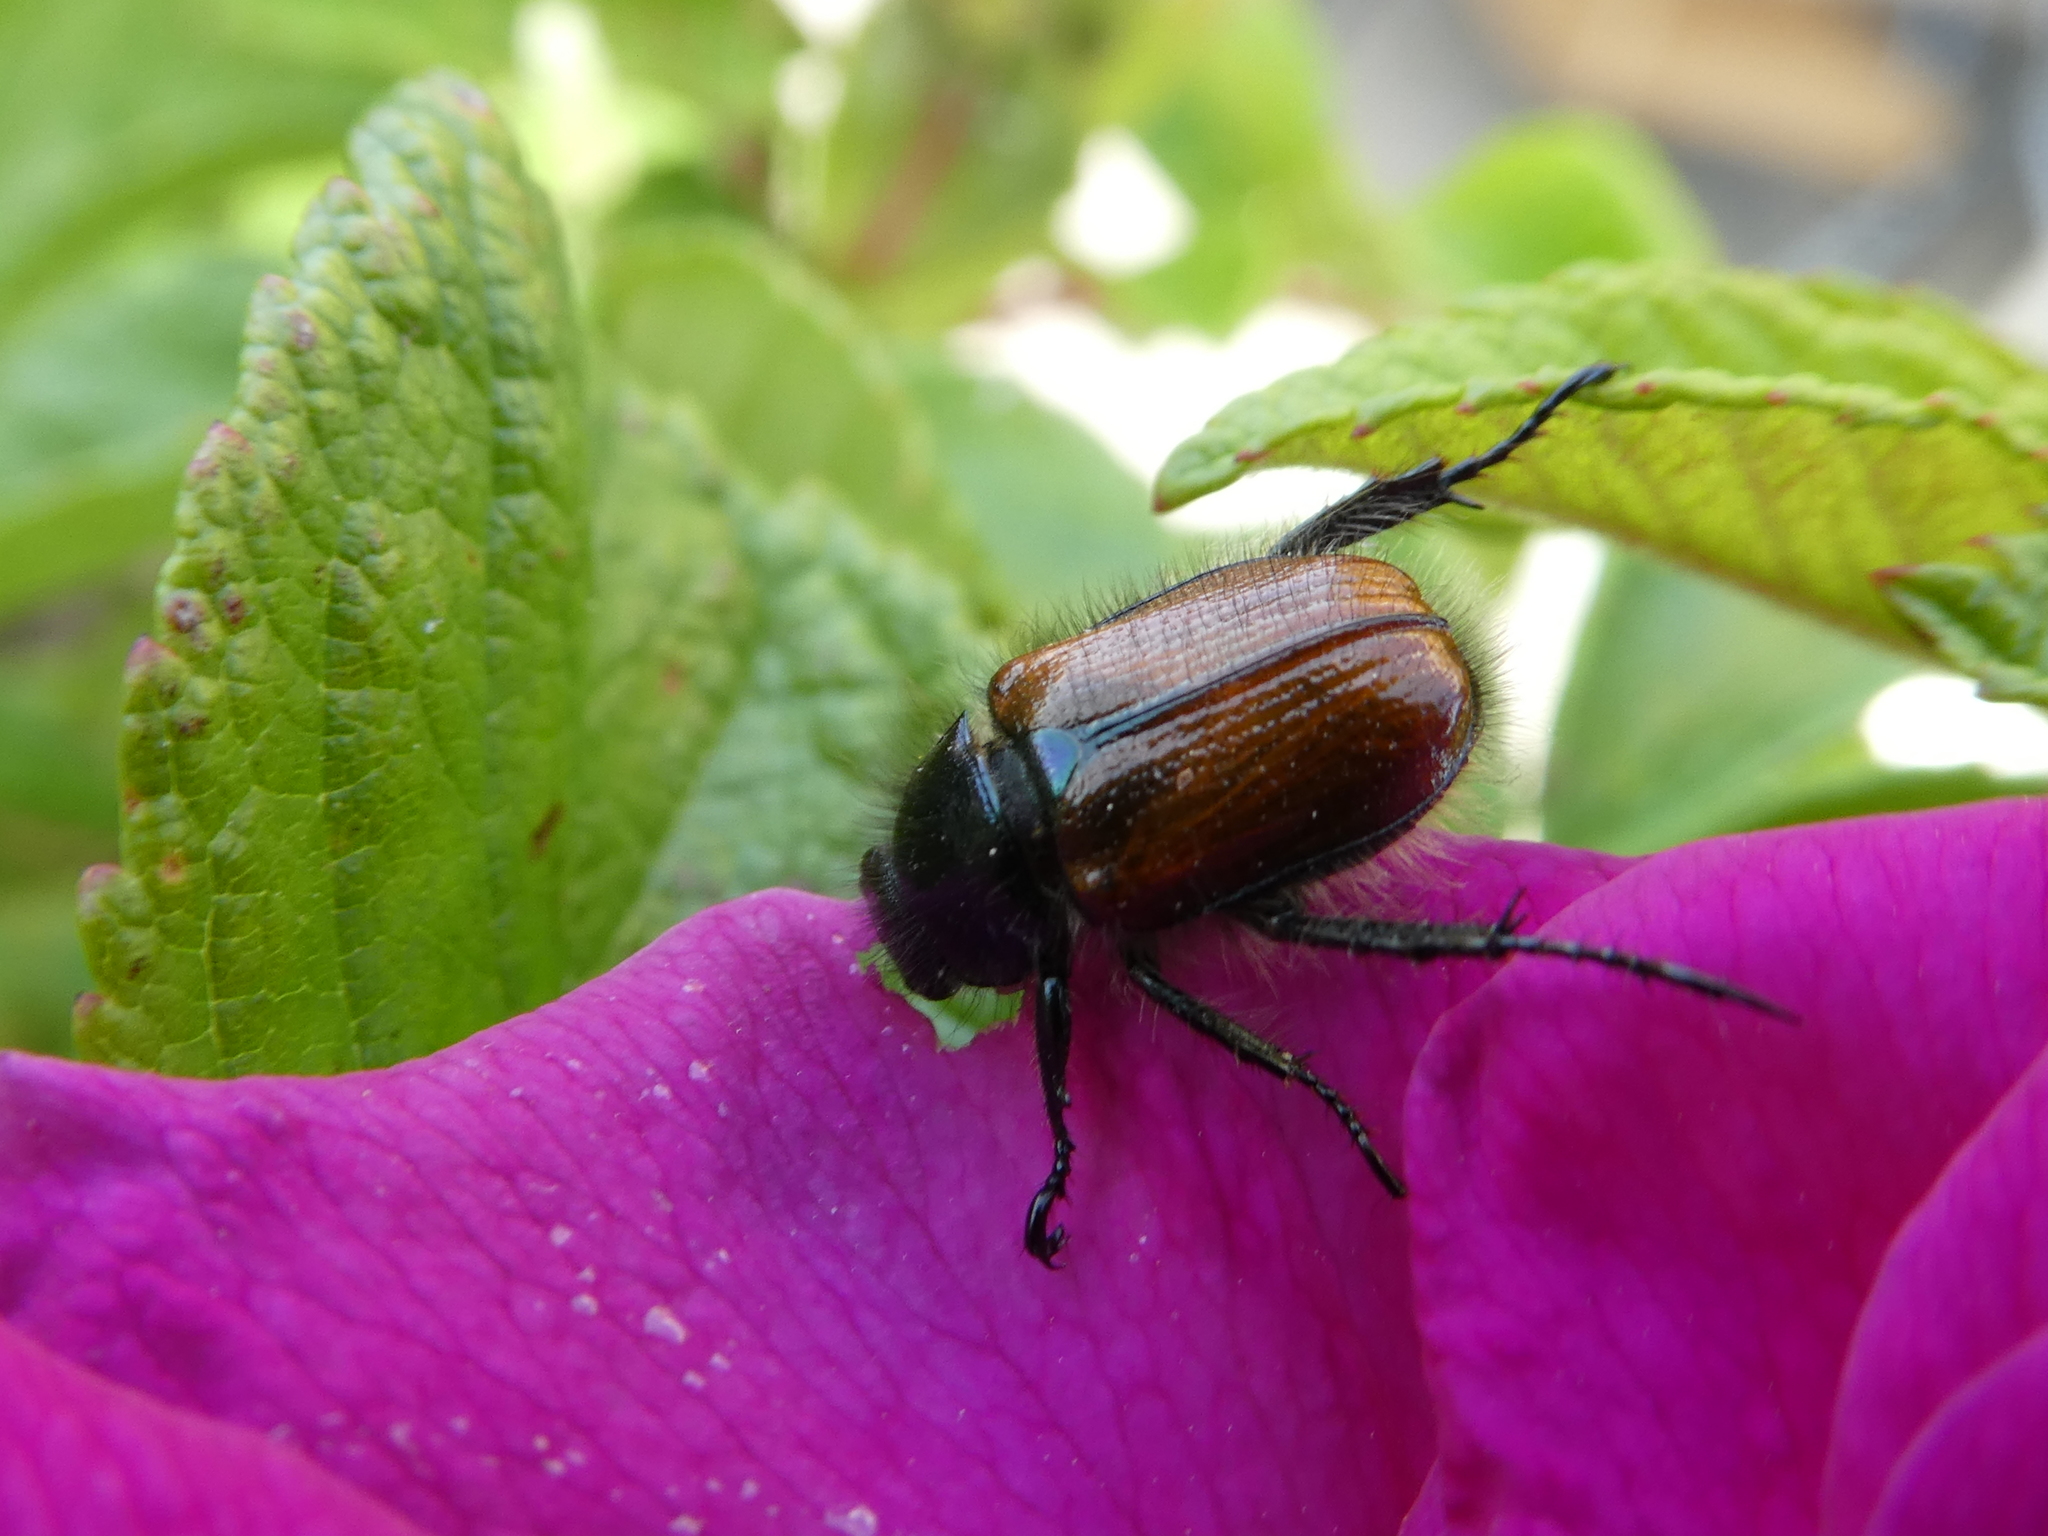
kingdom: Animalia
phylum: Arthropoda
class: Insecta
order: Coleoptera
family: Scarabaeidae
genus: Phyllopertha
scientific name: Phyllopertha horticola
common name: Garden chafer
